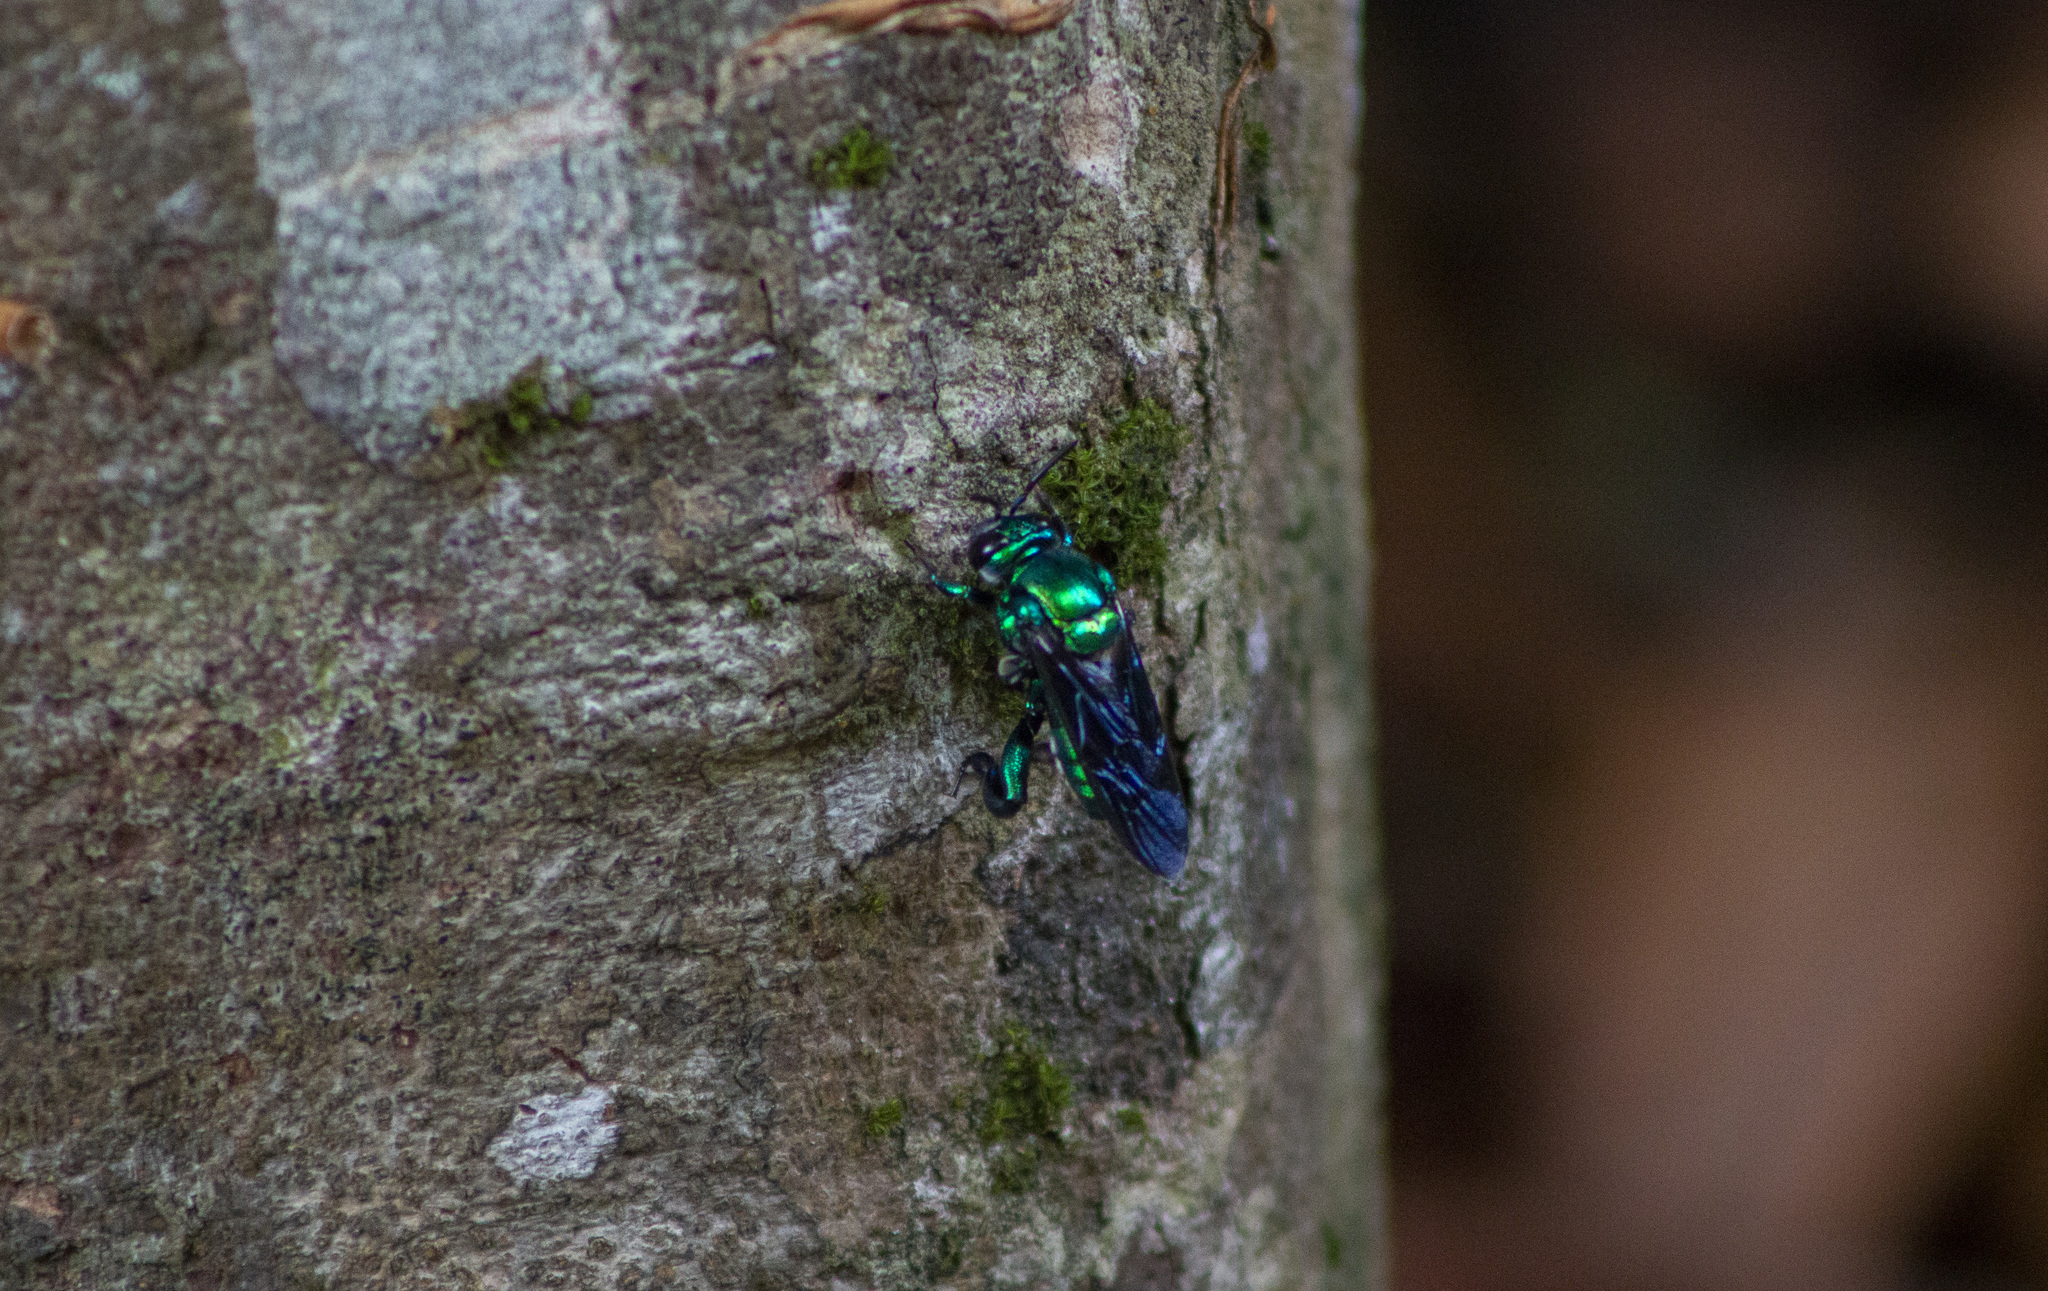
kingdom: Animalia
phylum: Arthropoda
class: Insecta
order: Hymenoptera
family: Apidae
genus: Exaerete
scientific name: Exaerete smaragdina
